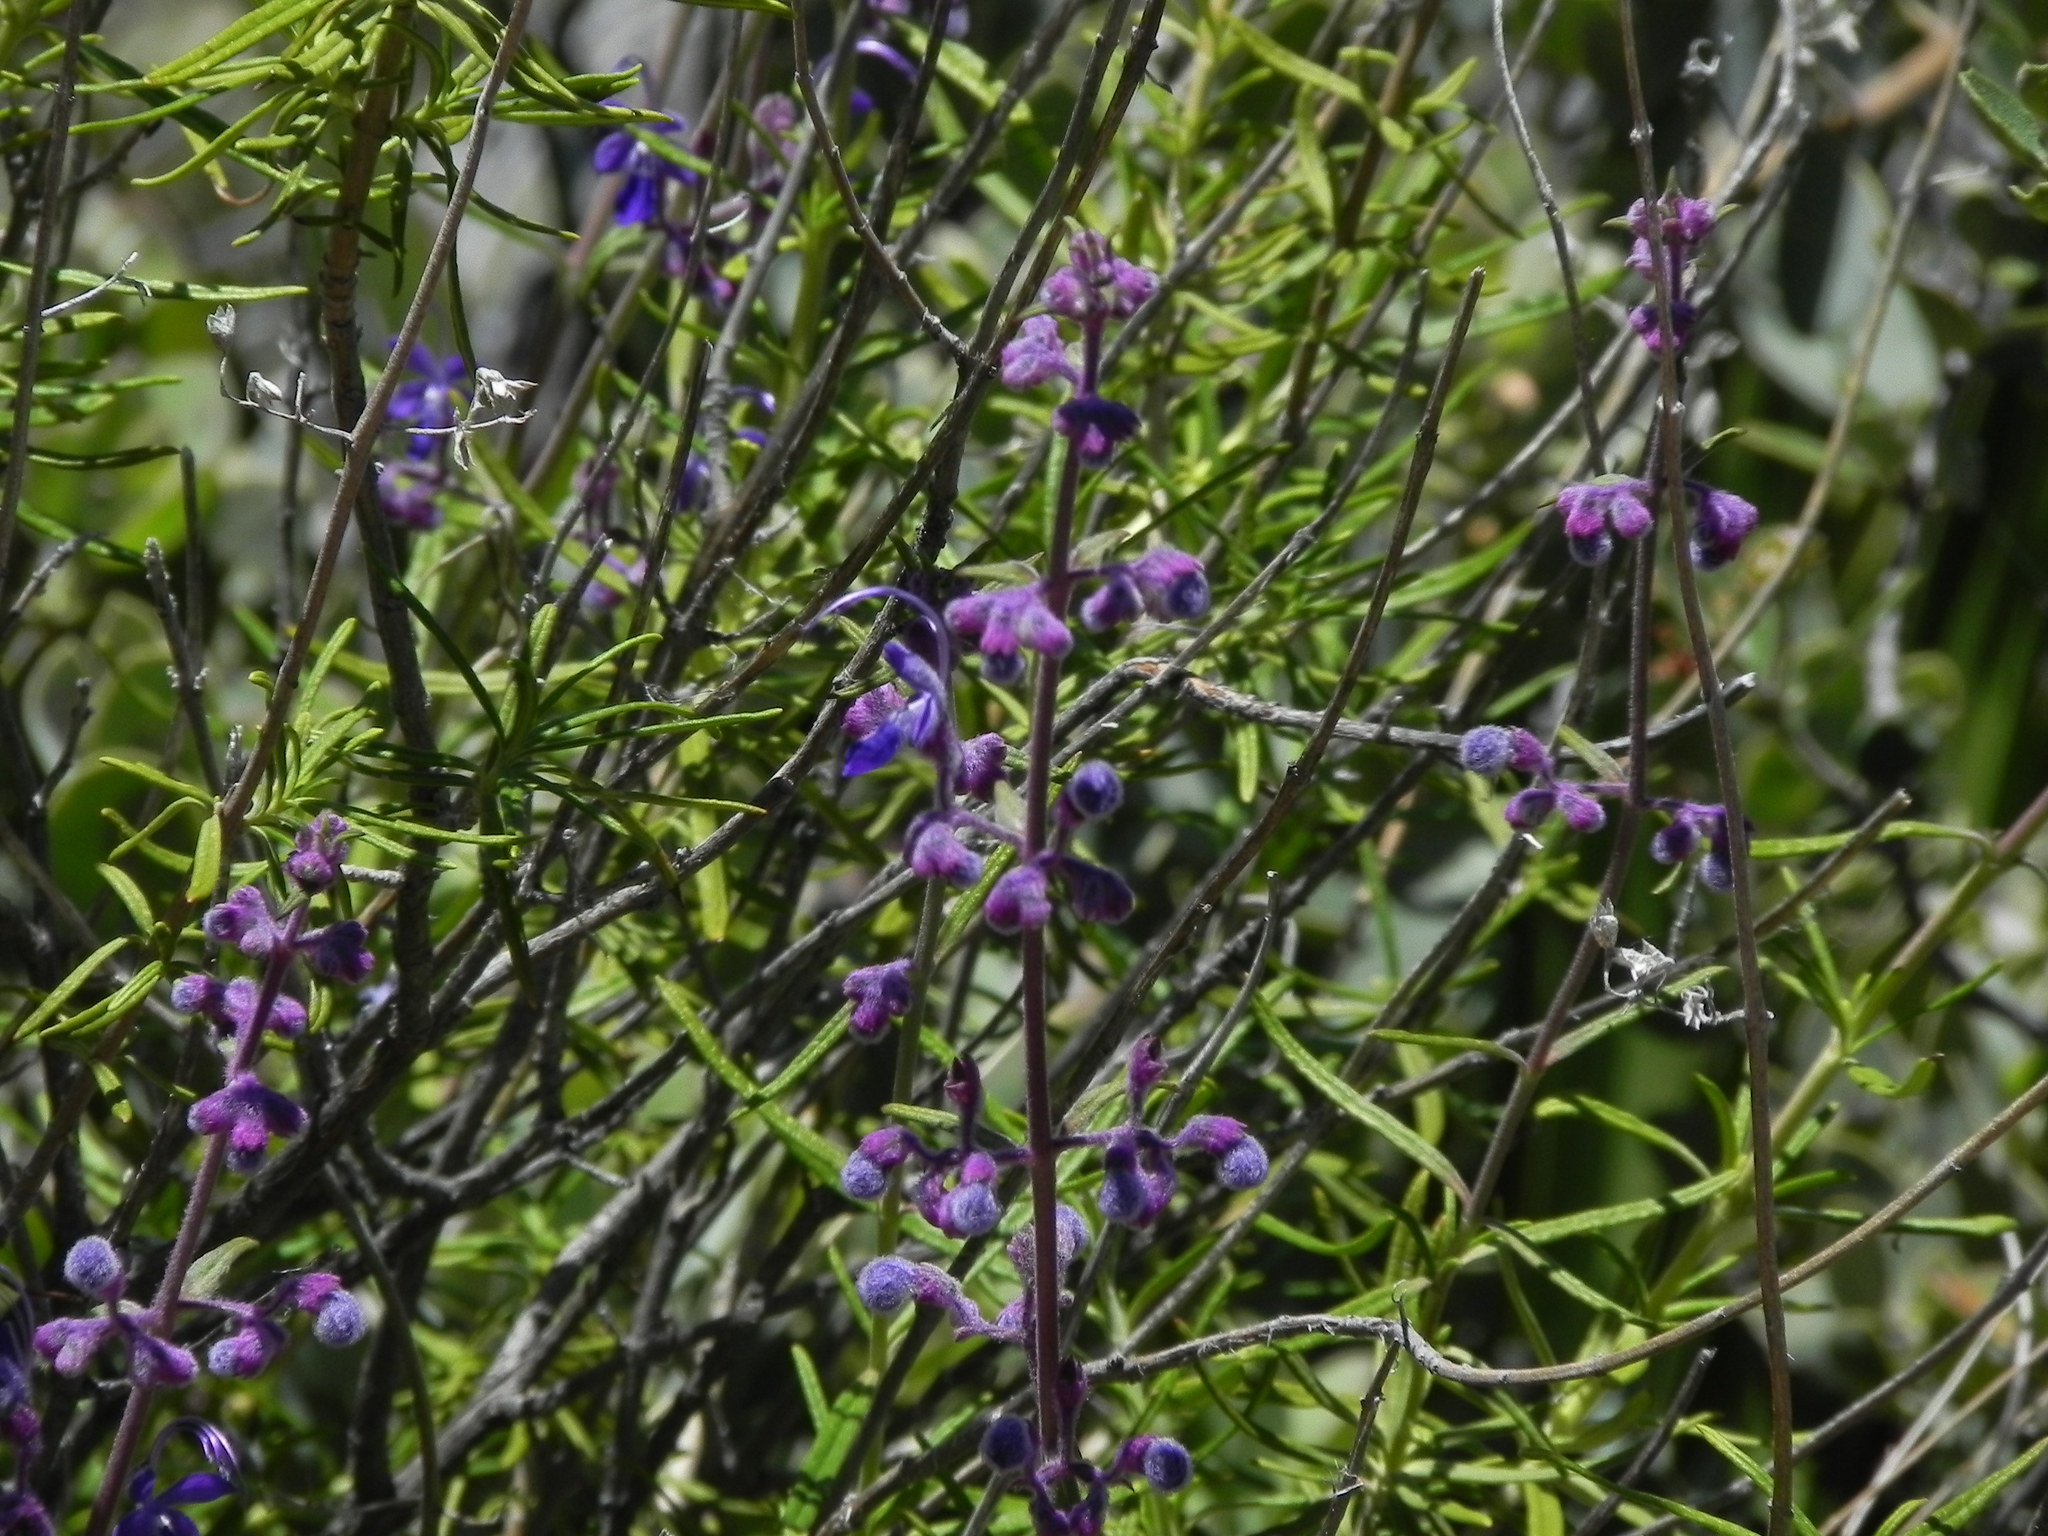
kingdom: Plantae
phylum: Tracheophyta
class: Magnoliopsida
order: Lamiales
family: Lamiaceae
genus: Trichostema
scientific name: Trichostema parishii
